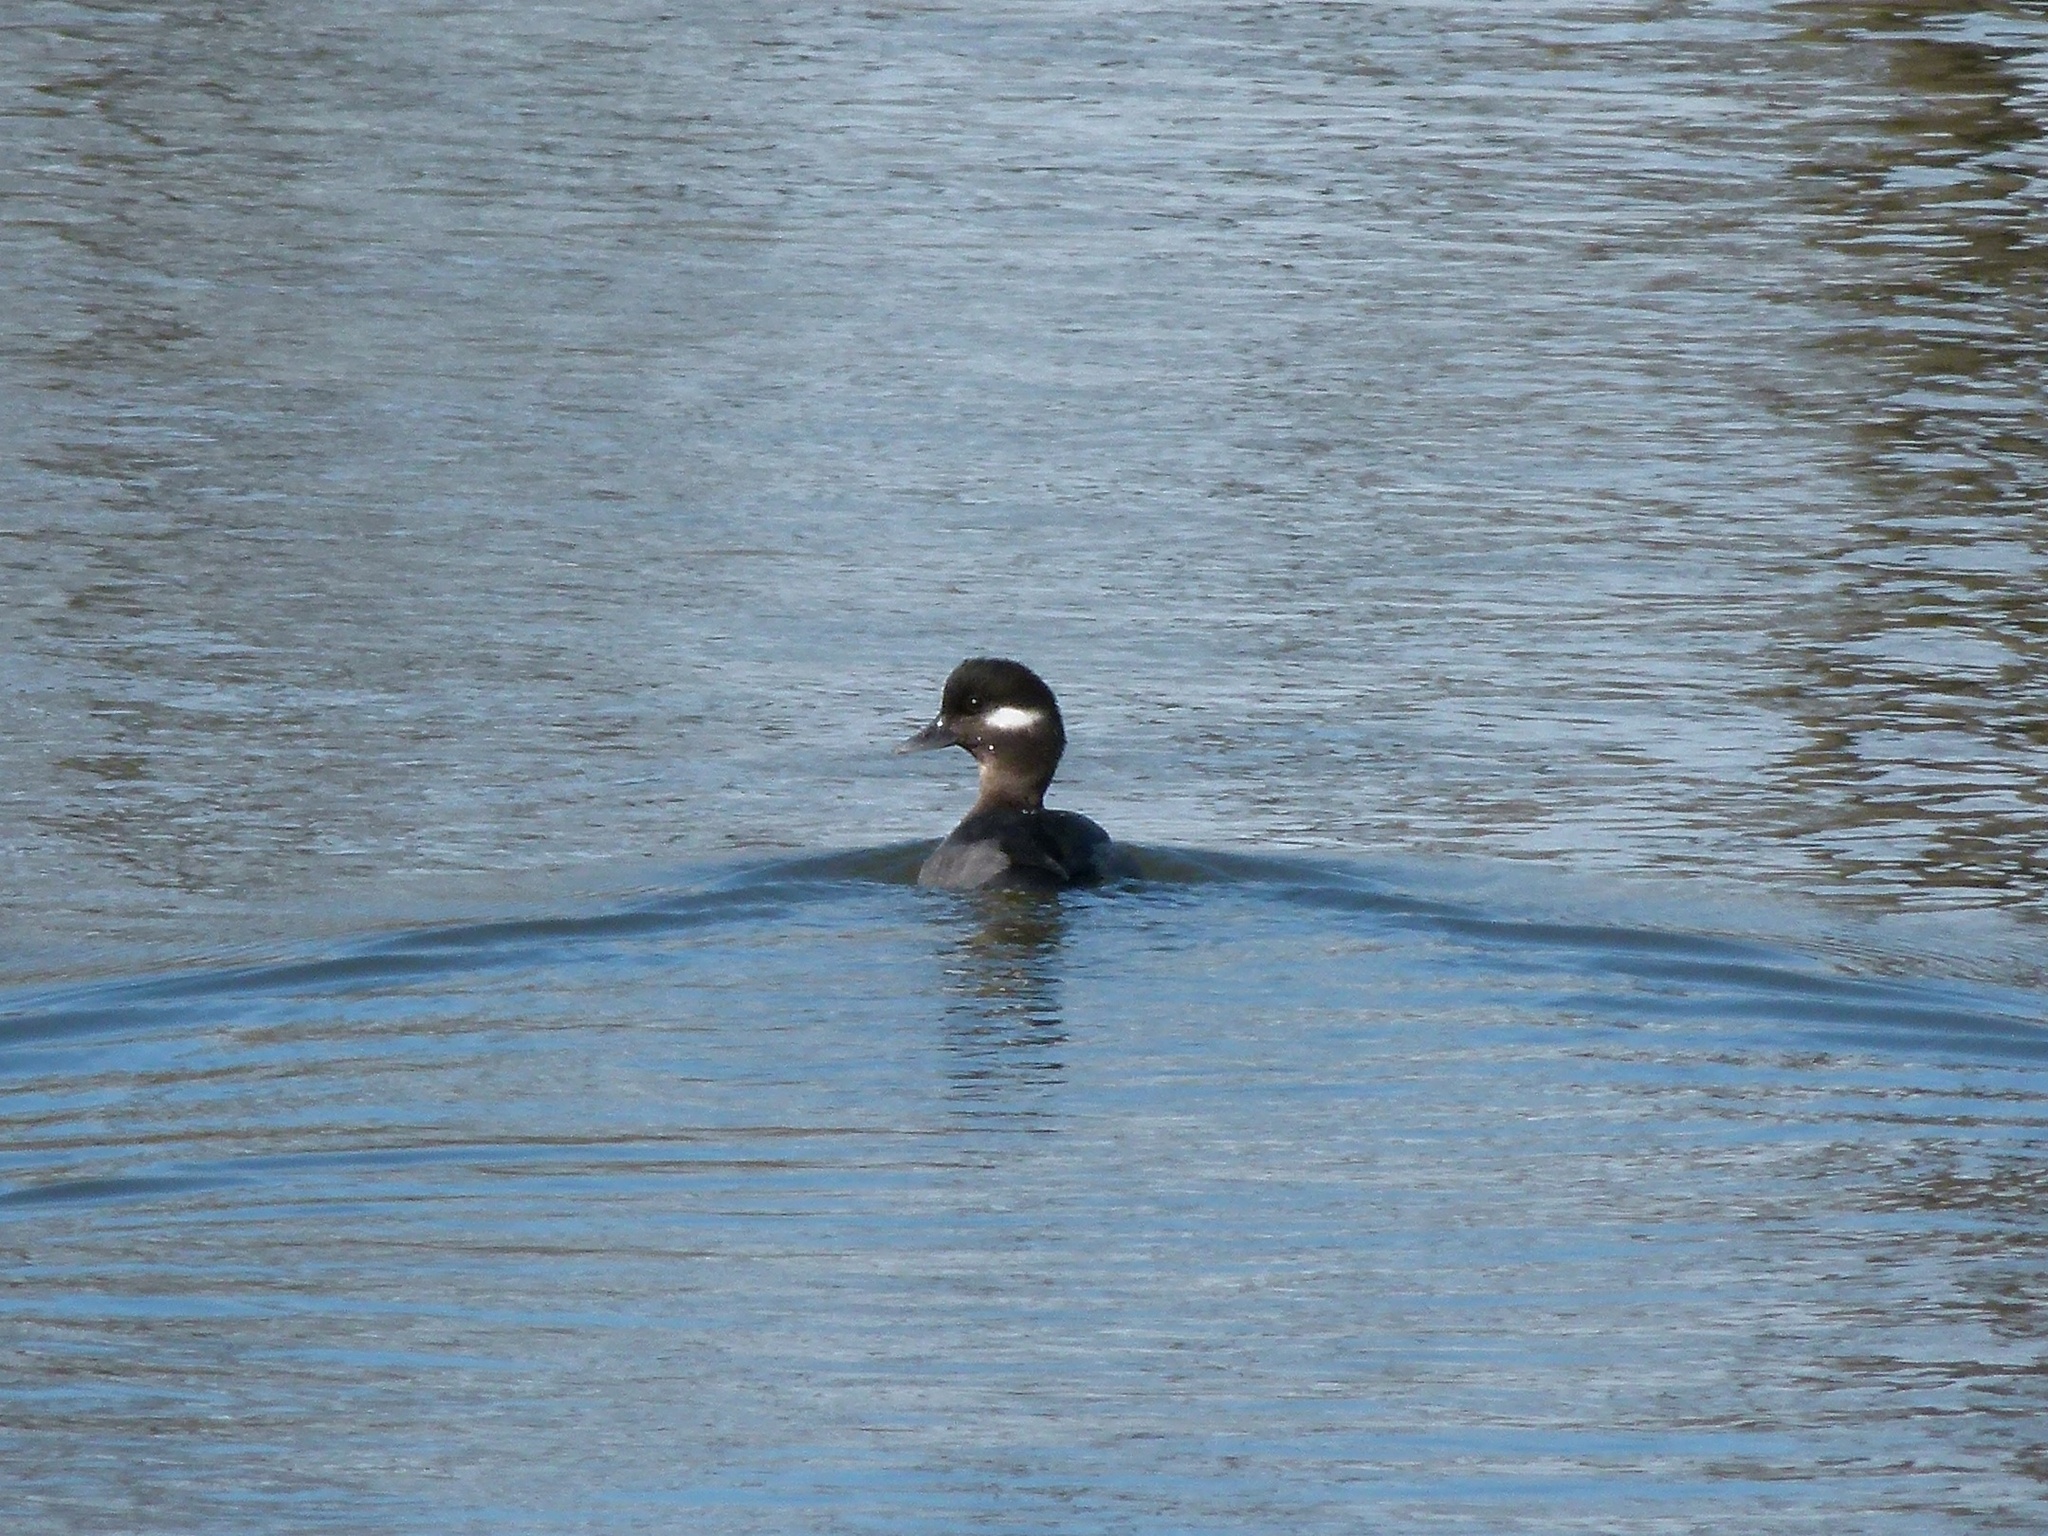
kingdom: Animalia
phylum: Chordata
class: Aves
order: Anseriformes
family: Anatidae
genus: Bucephala
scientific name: Bucephala albeola
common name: Bufflehead
